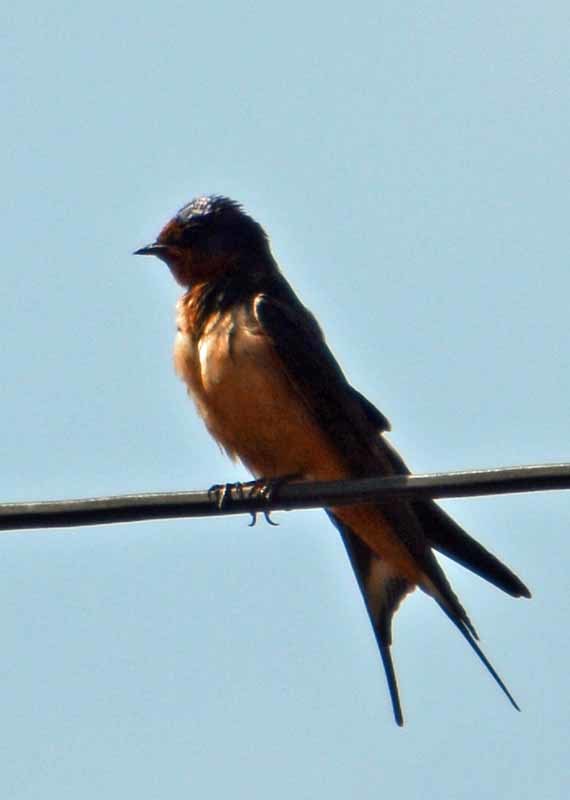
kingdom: Animalia
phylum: Chordata
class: Aves
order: Passeriformes
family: Hirundinidae
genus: Hirundo
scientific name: Hirundo rustica
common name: Barn swallow
